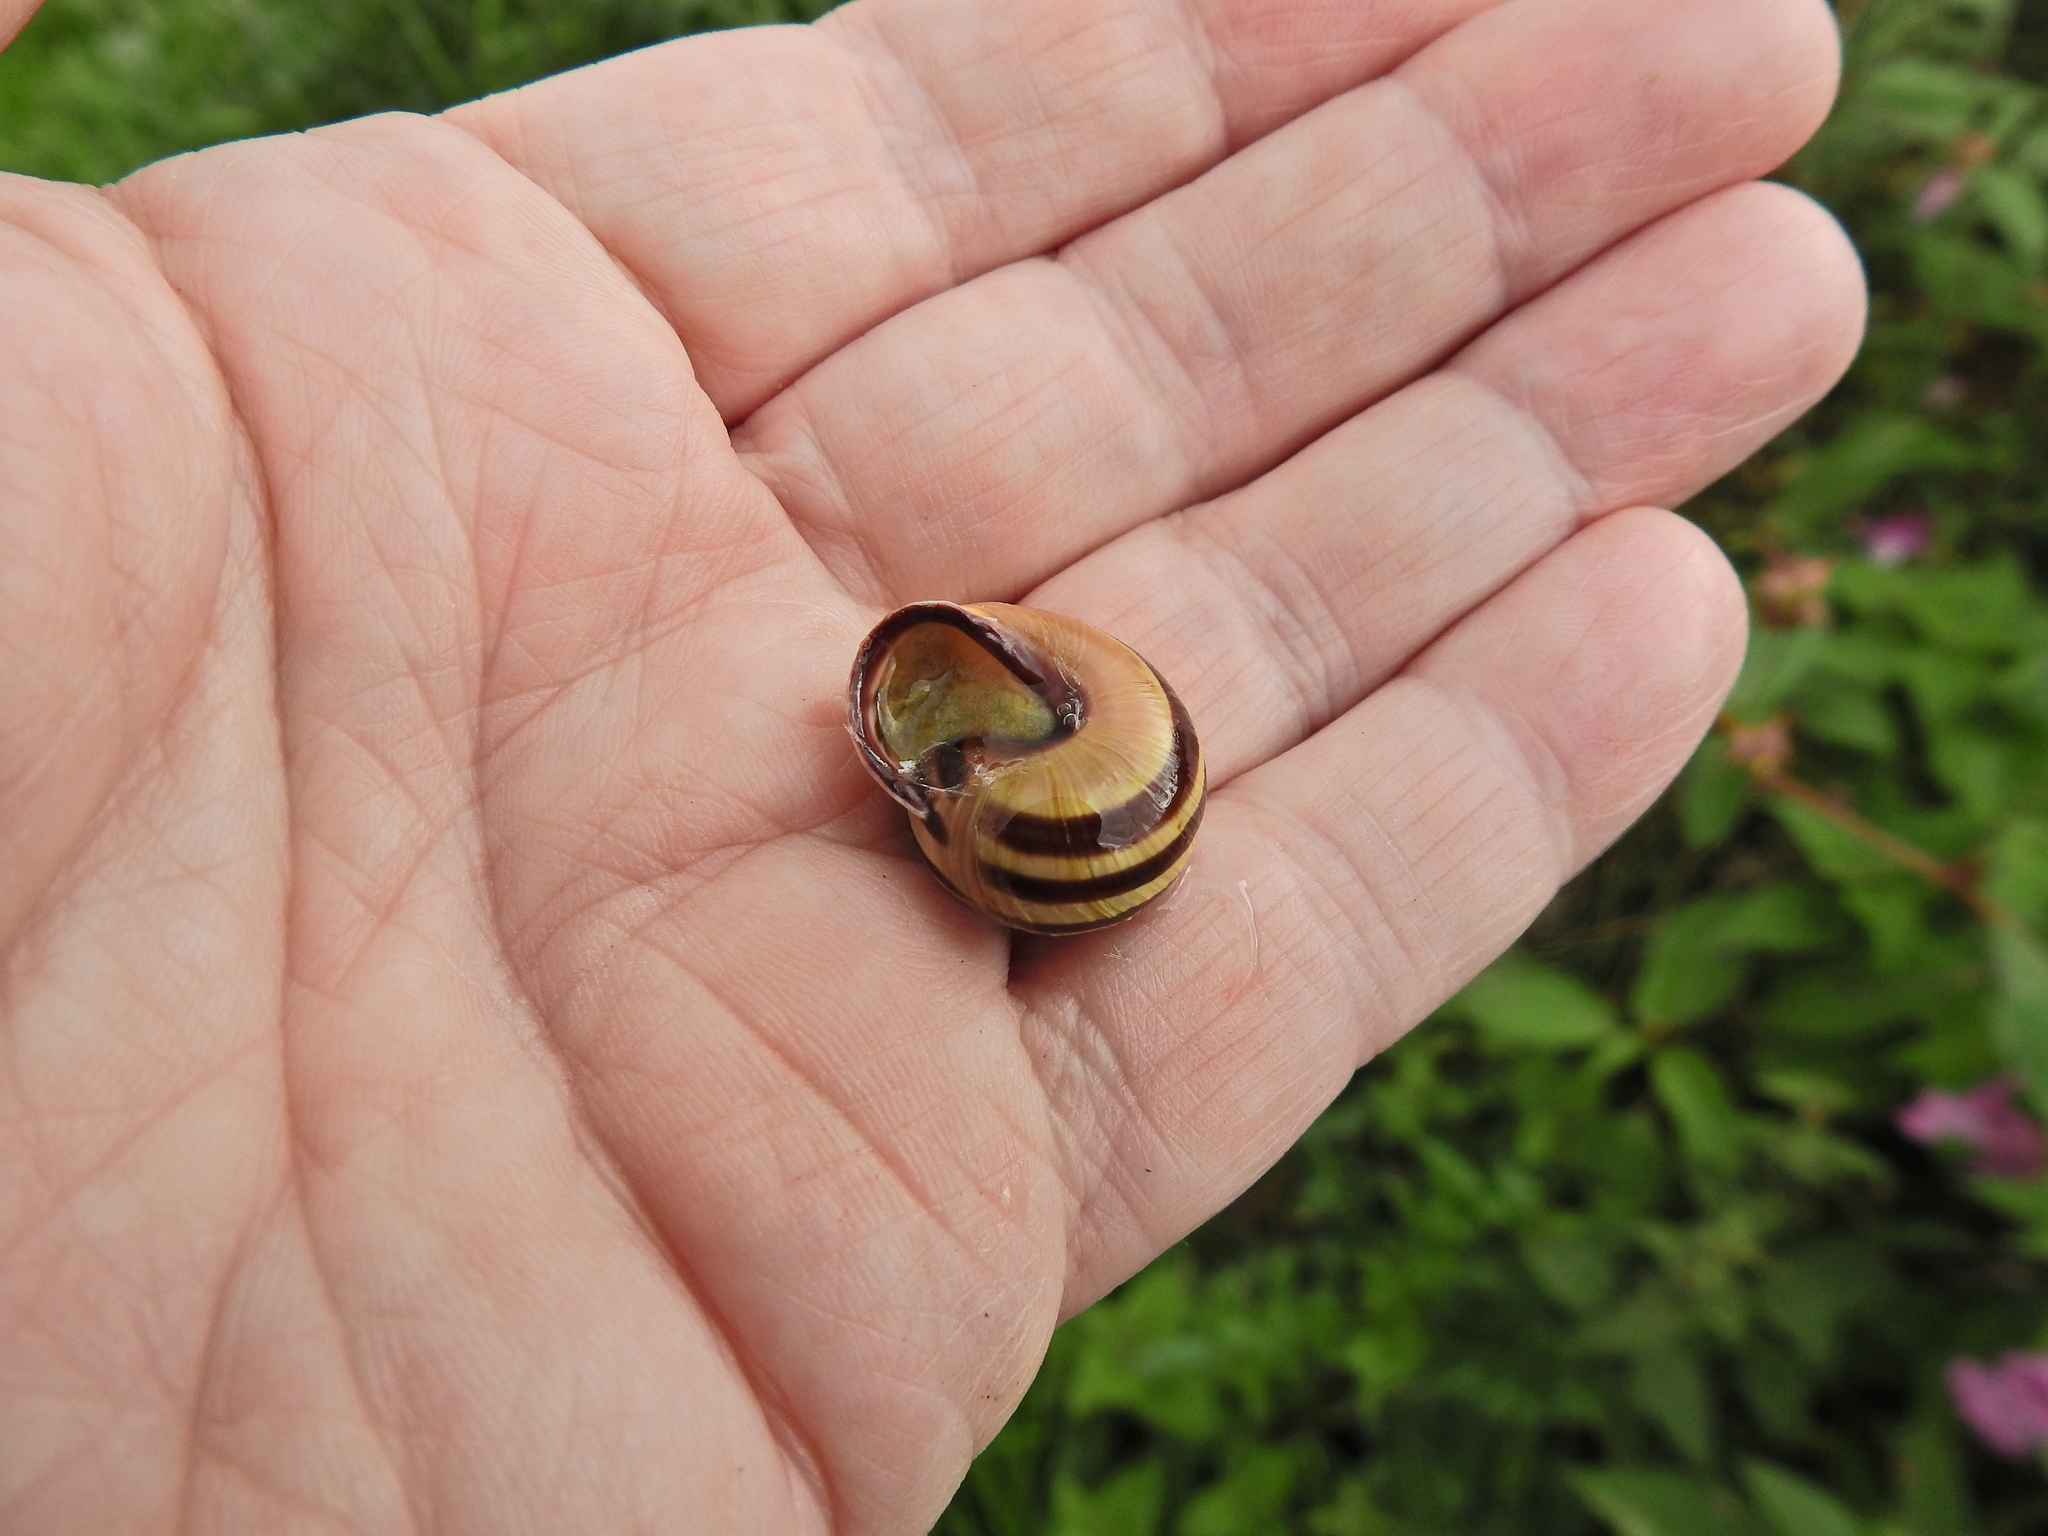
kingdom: Animalia
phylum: Mollusca
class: Gastropoda
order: Stylommatophora
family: Helicidae
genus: Cepaea
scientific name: Cepaea nemoralis
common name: Grovesnail
